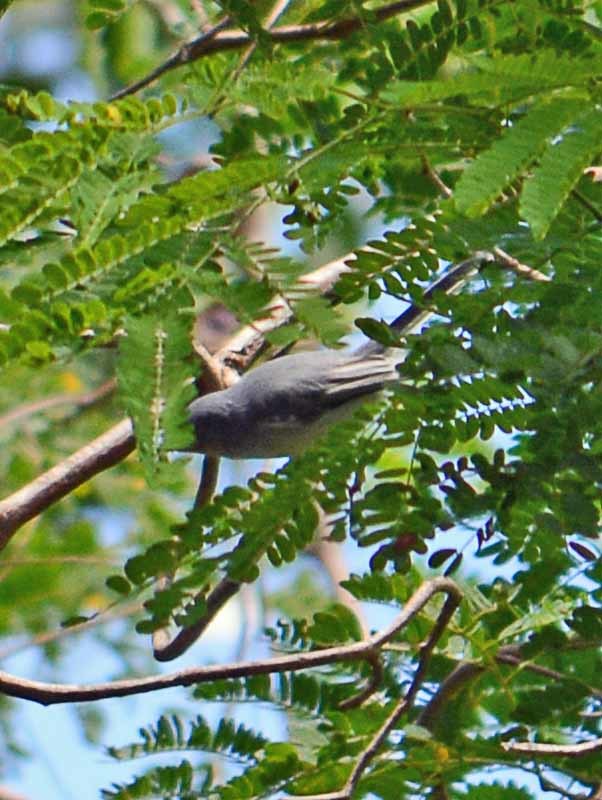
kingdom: Animalia
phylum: Chordata
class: Aves
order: Passeriformes
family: Polioptilidae
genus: Polioptila
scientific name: Polioptila caerulea
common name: Blue-gray gnatcatcher
